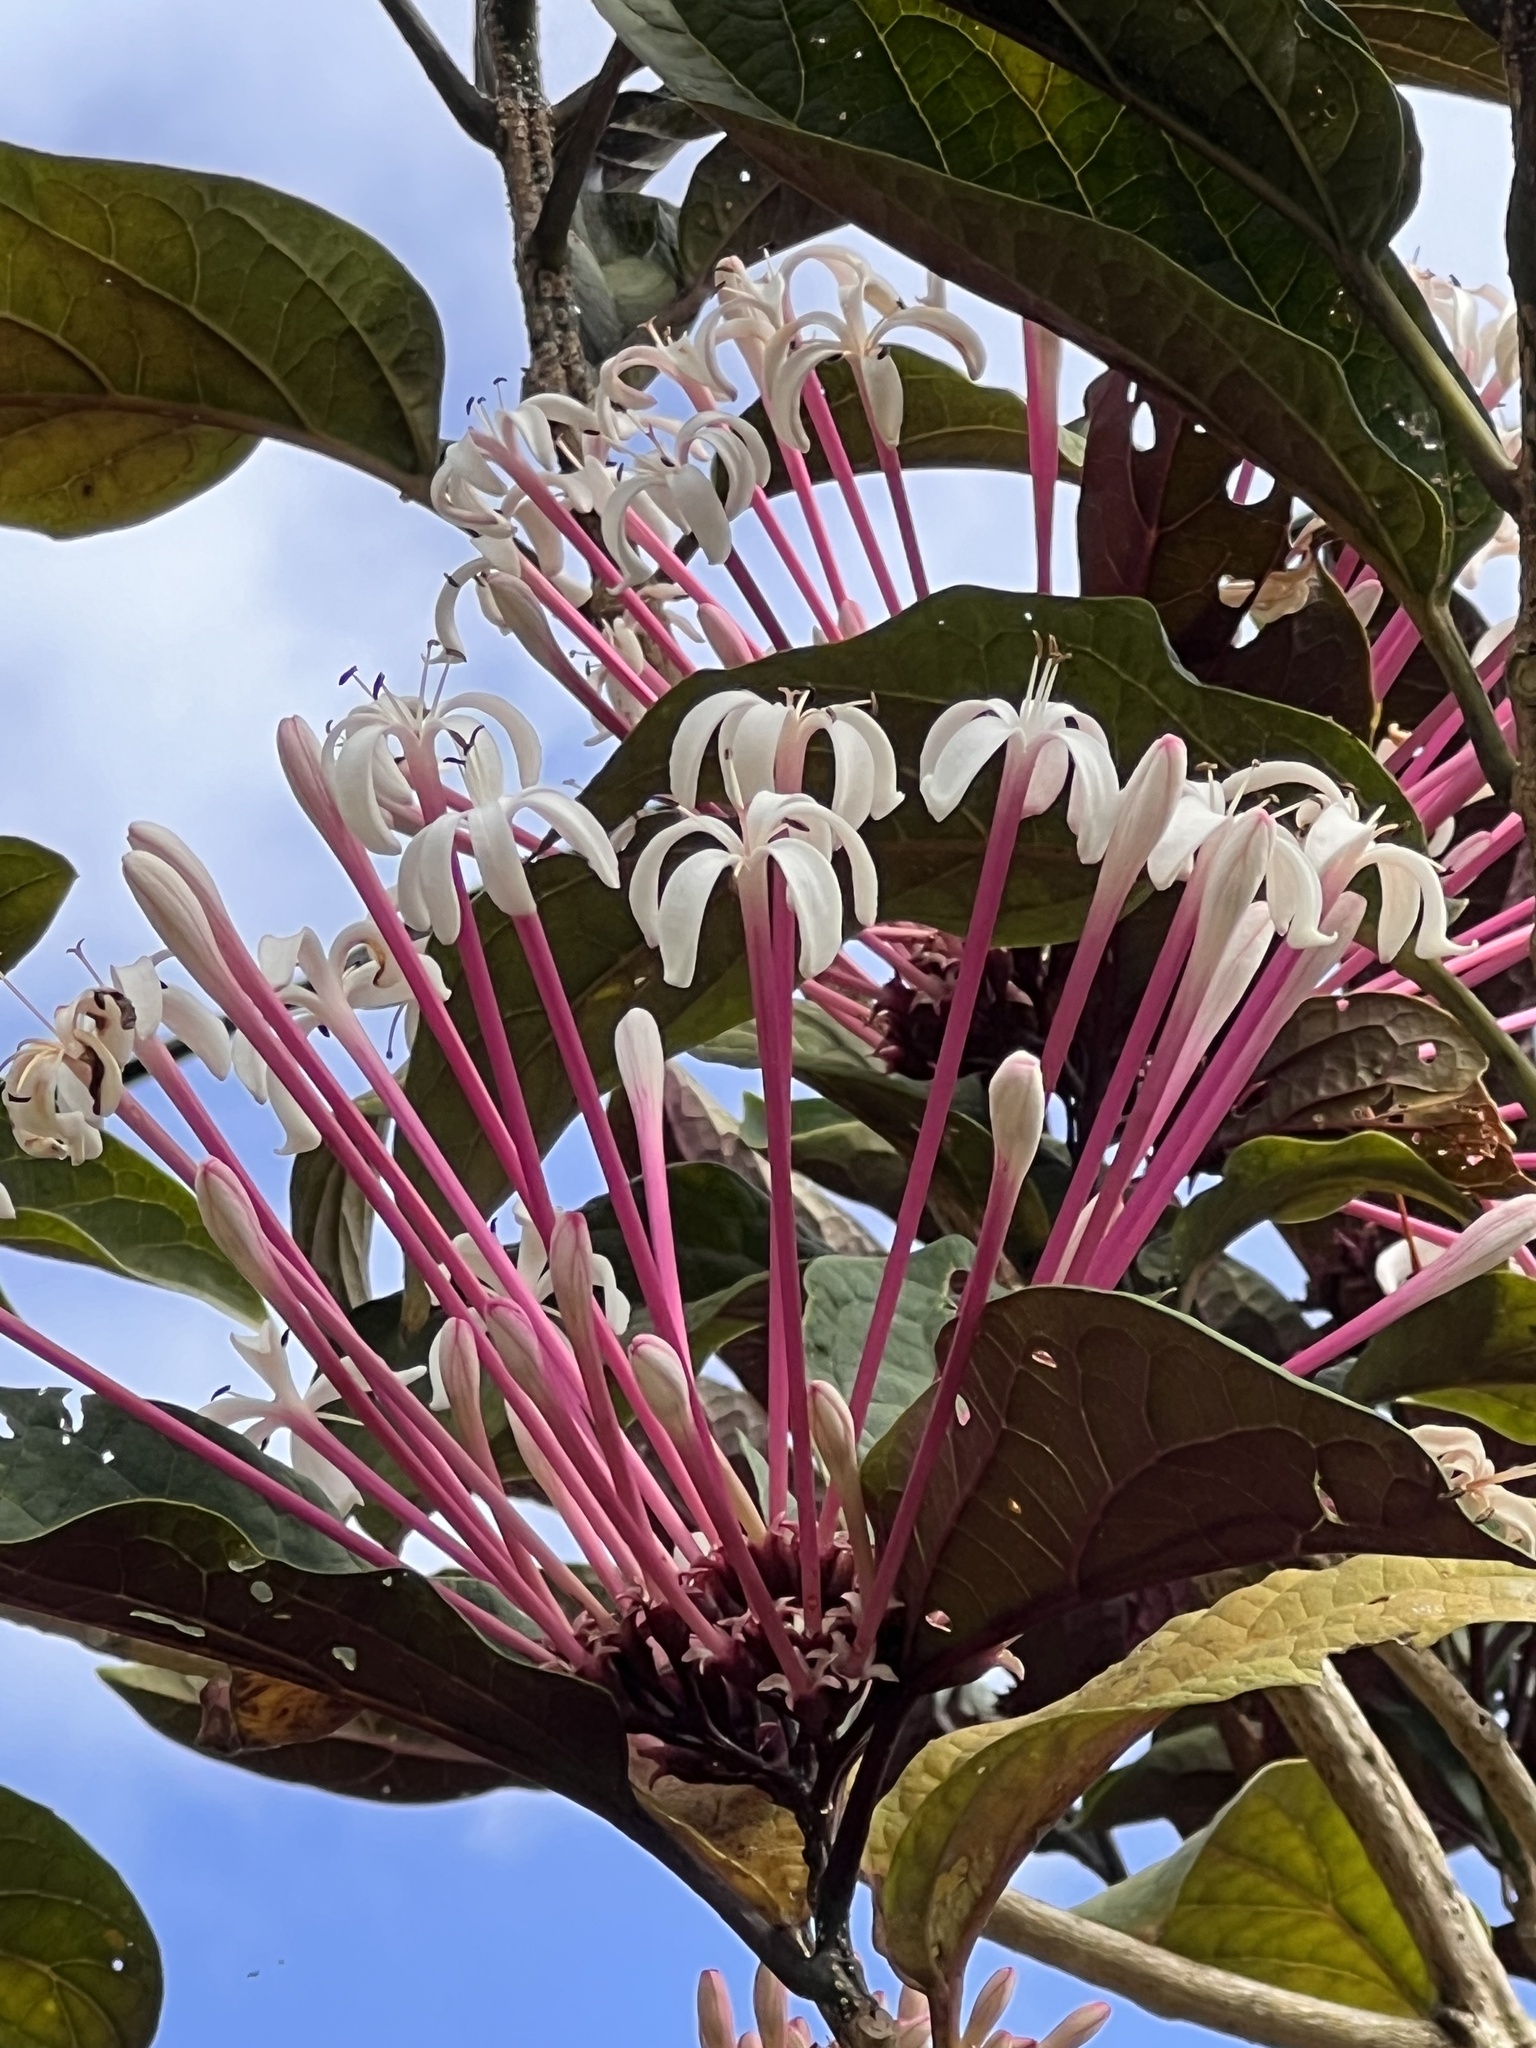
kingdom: Plantae
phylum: Tracheophyta
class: Magnoliopsida
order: Lamiales
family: Lamiaceae
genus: Clerodendrum
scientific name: Clerodendrum quadriloculare
